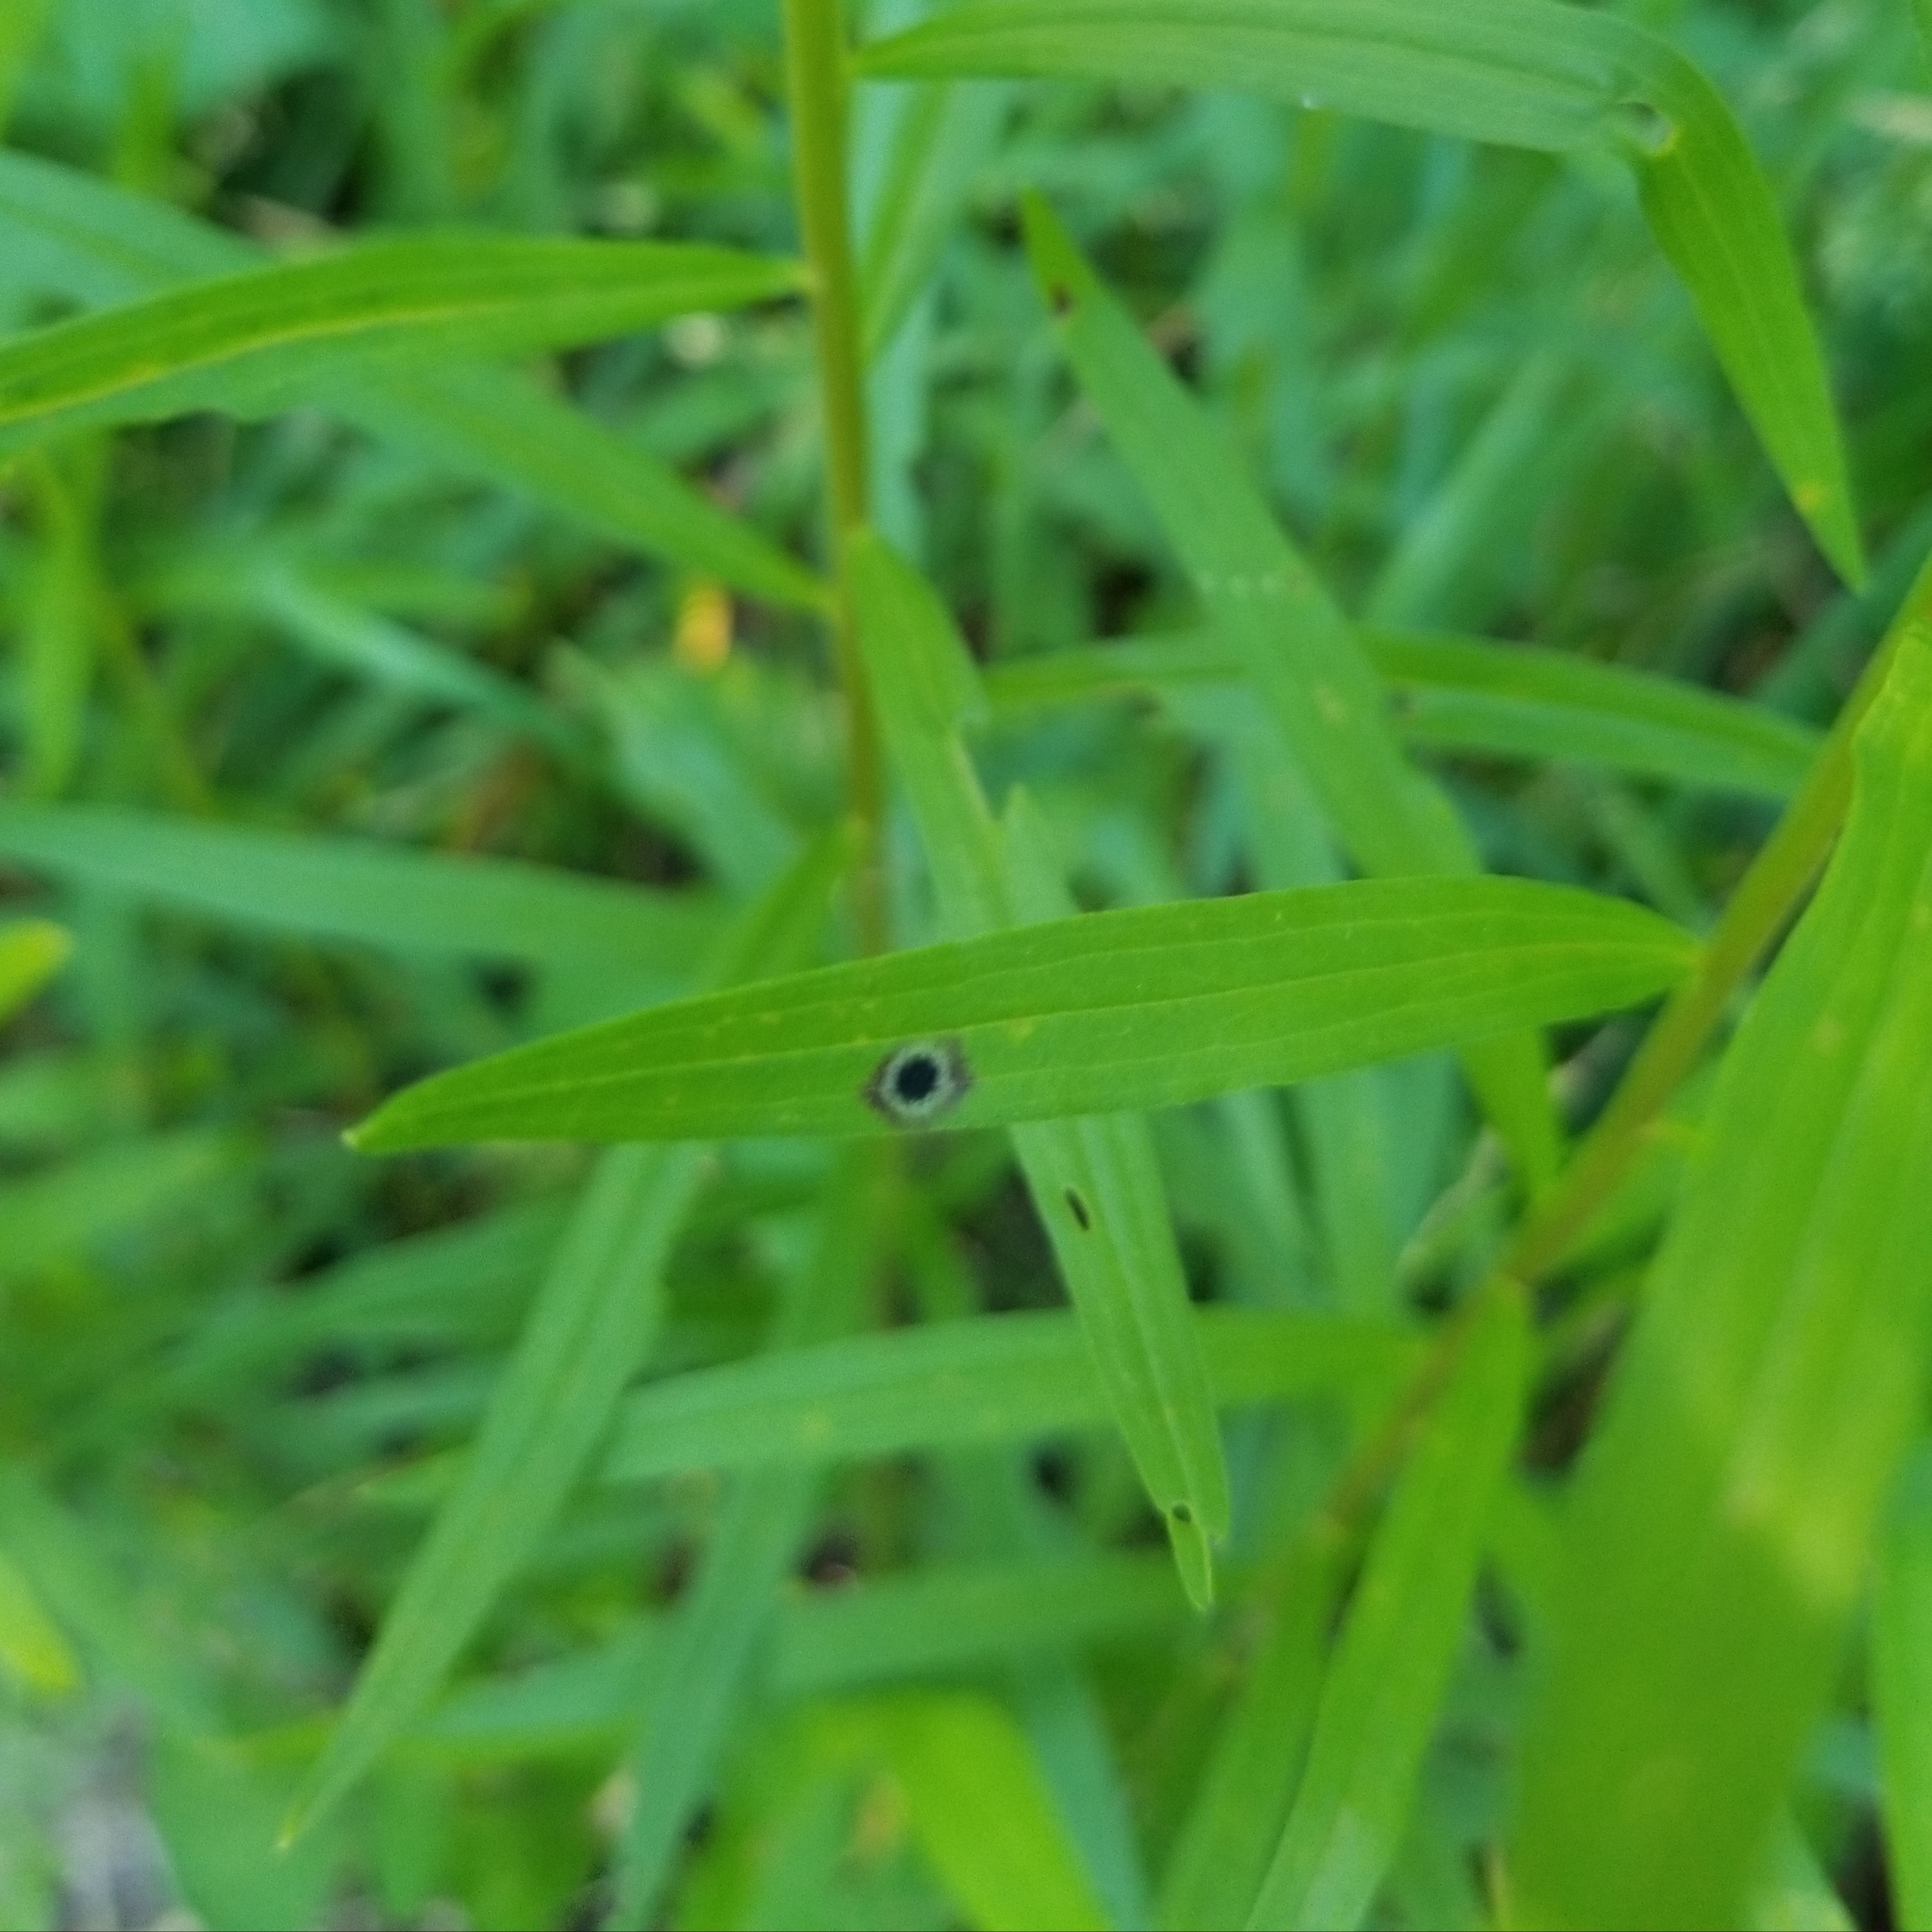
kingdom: Animalia
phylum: Arthropoda
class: Insecta
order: Diptera
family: Cecidomyiidae
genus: Asteromyia
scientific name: Asteromyia euthamiae
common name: Euthamia leaf gall midge
